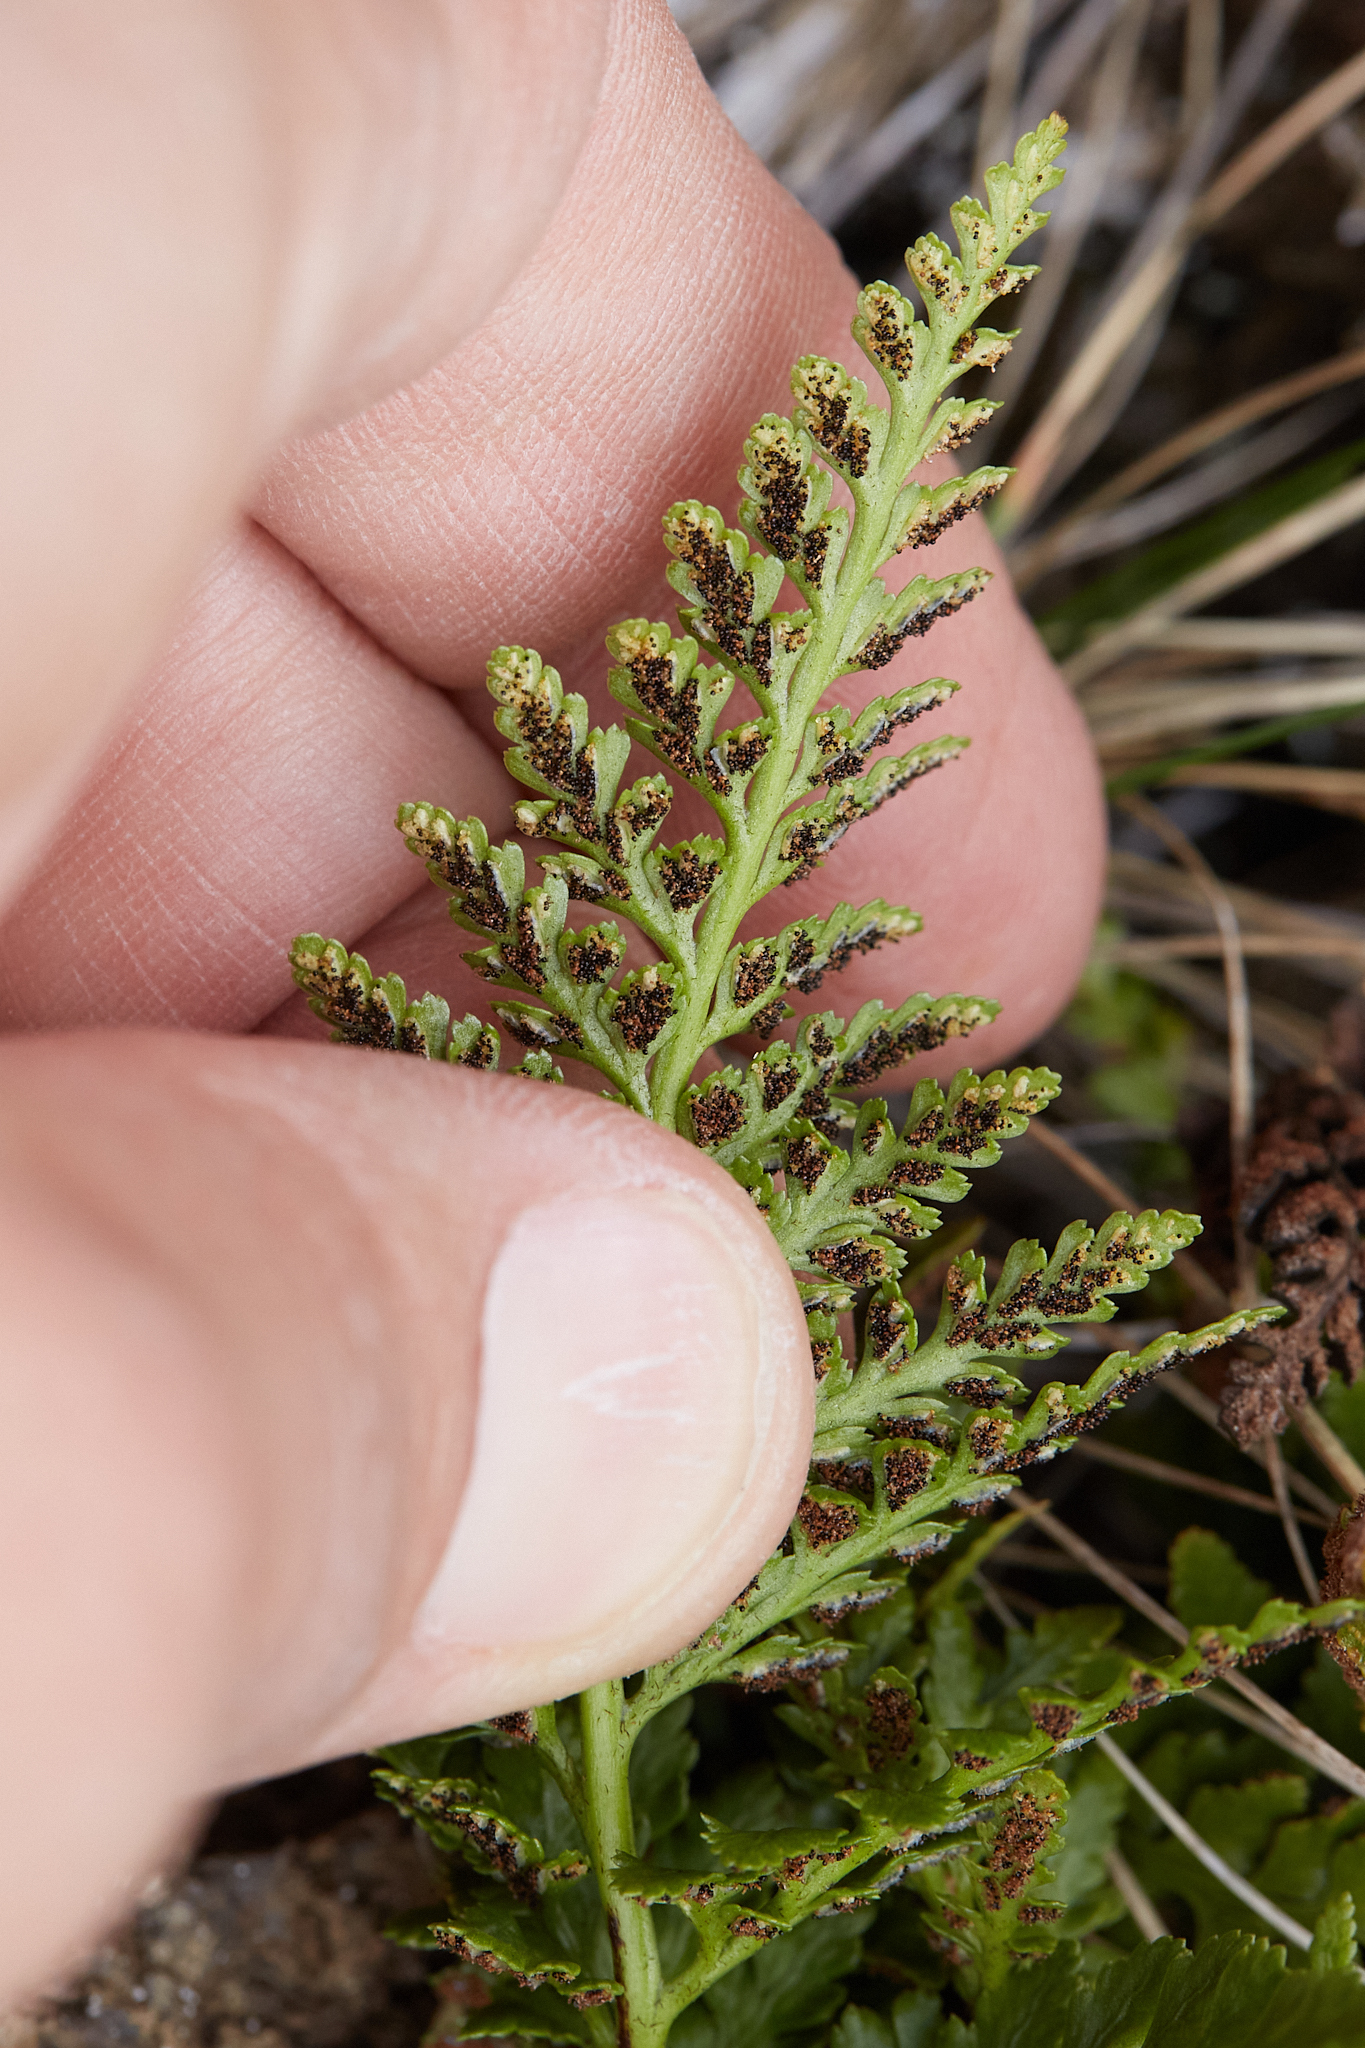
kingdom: Plantae
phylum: Tracheophyta
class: Polypodiopsida
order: Polypodiales
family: Aspleniaceae
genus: Asplenium
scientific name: Asplenium adiantum-nigrum
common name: Black spleenwort
